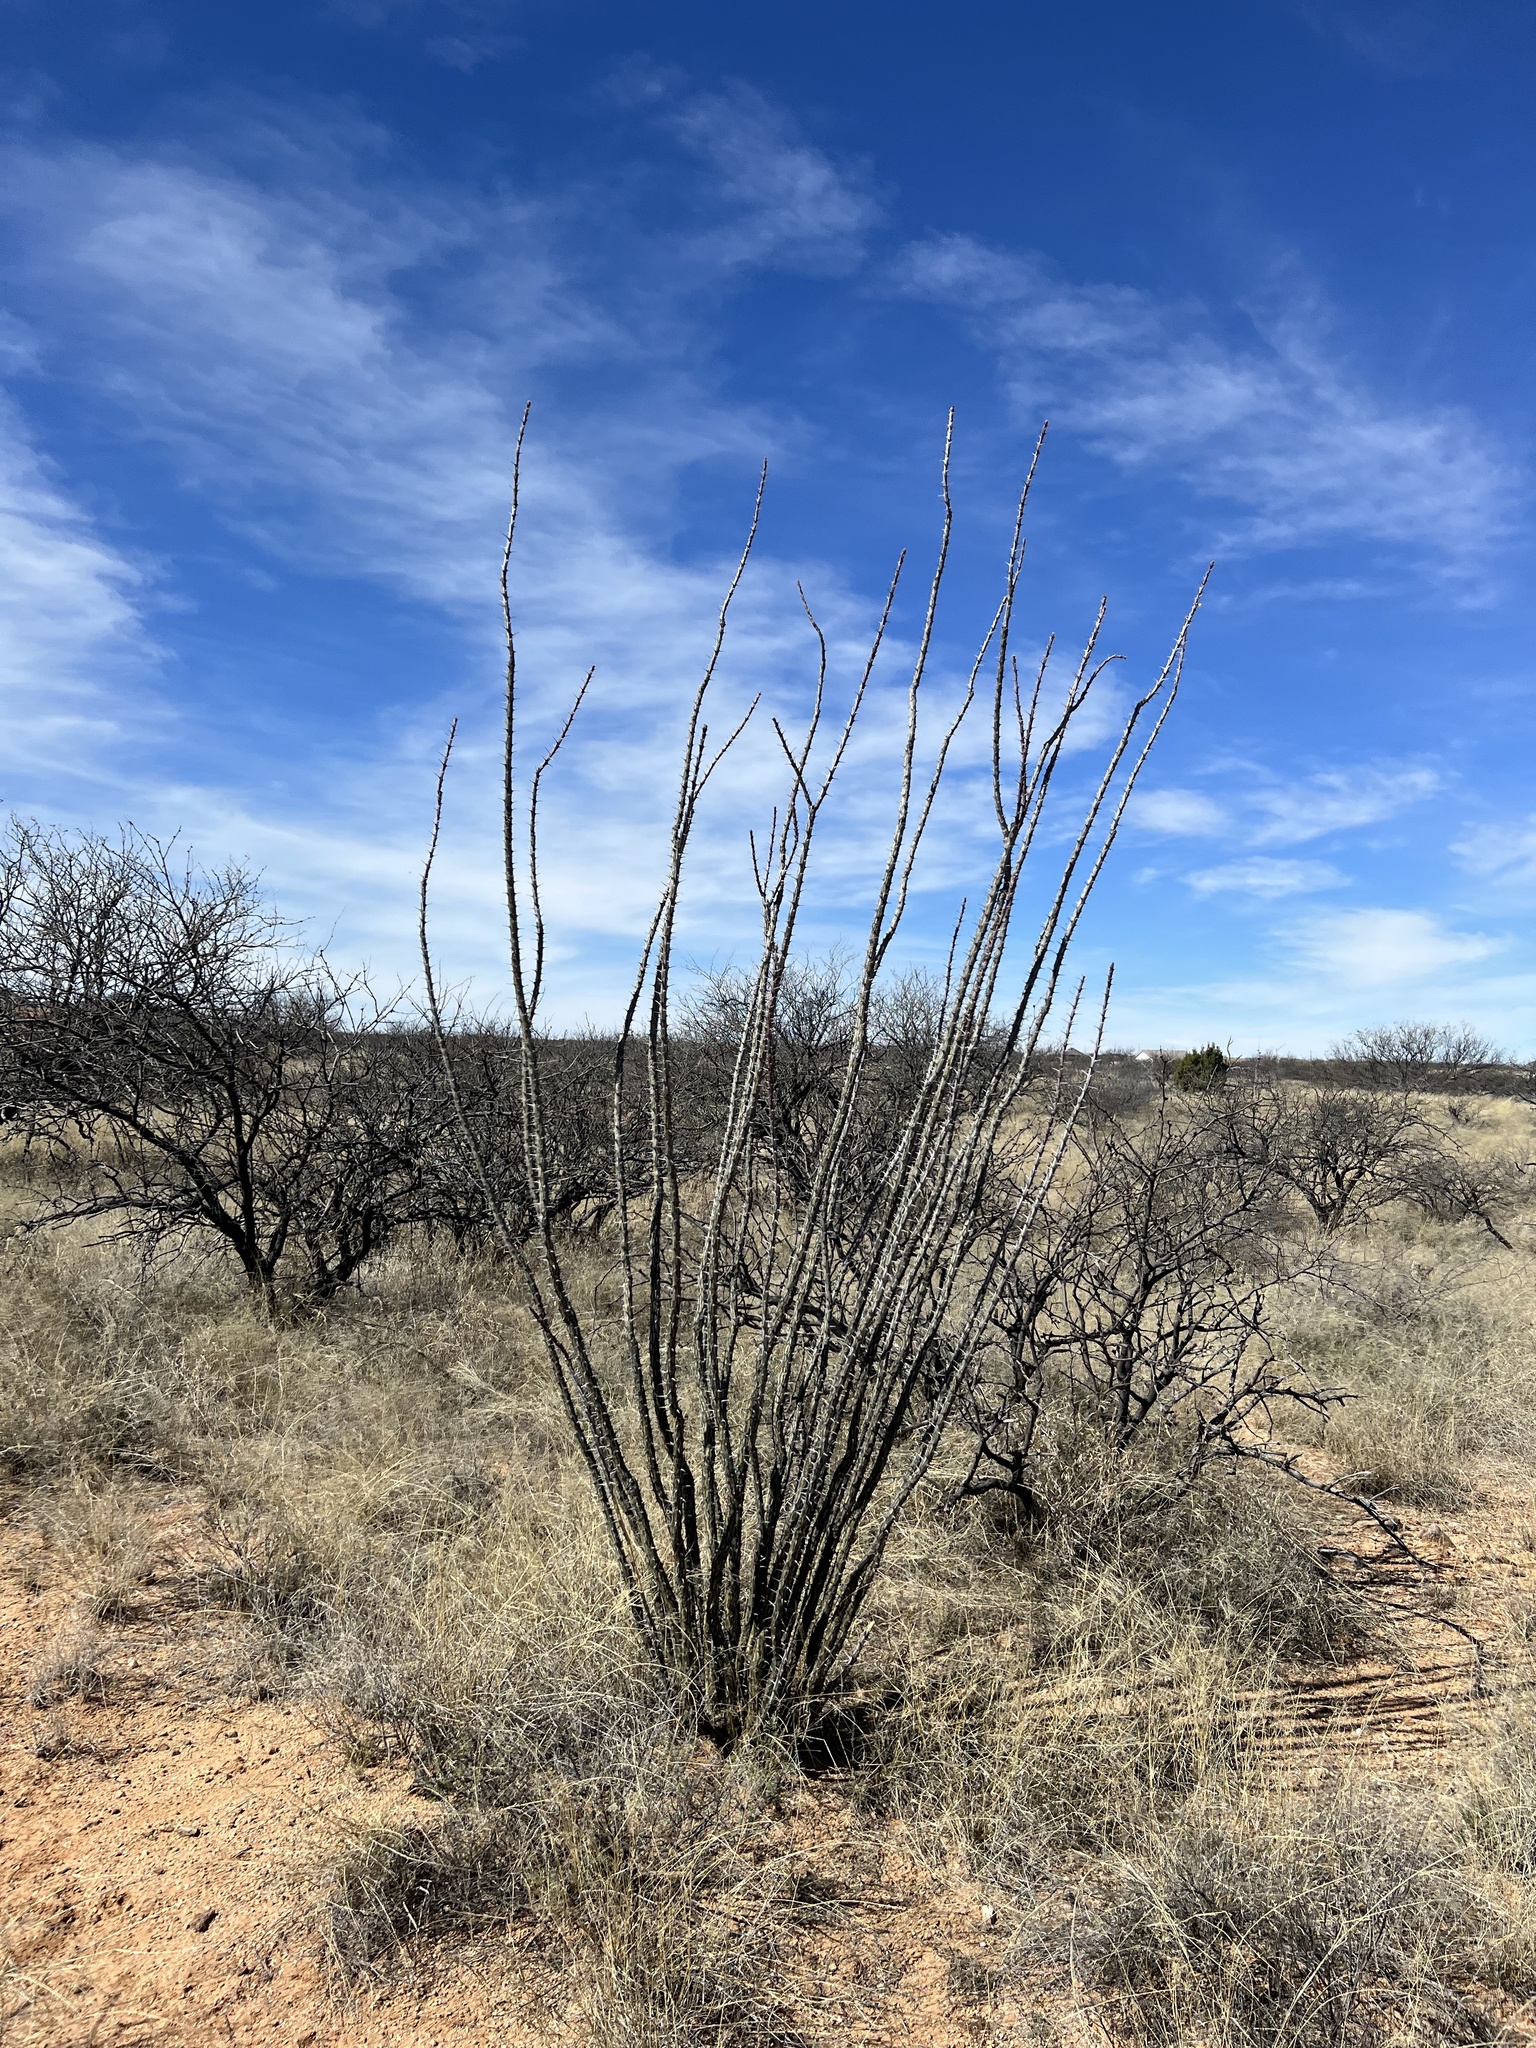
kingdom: Plantae
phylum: Tracheophyta
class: Magnoliopsida
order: Ericales
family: Fouquieriaceae
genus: Fouquieria
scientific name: Fouquieria splendens
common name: Vine-cactus
